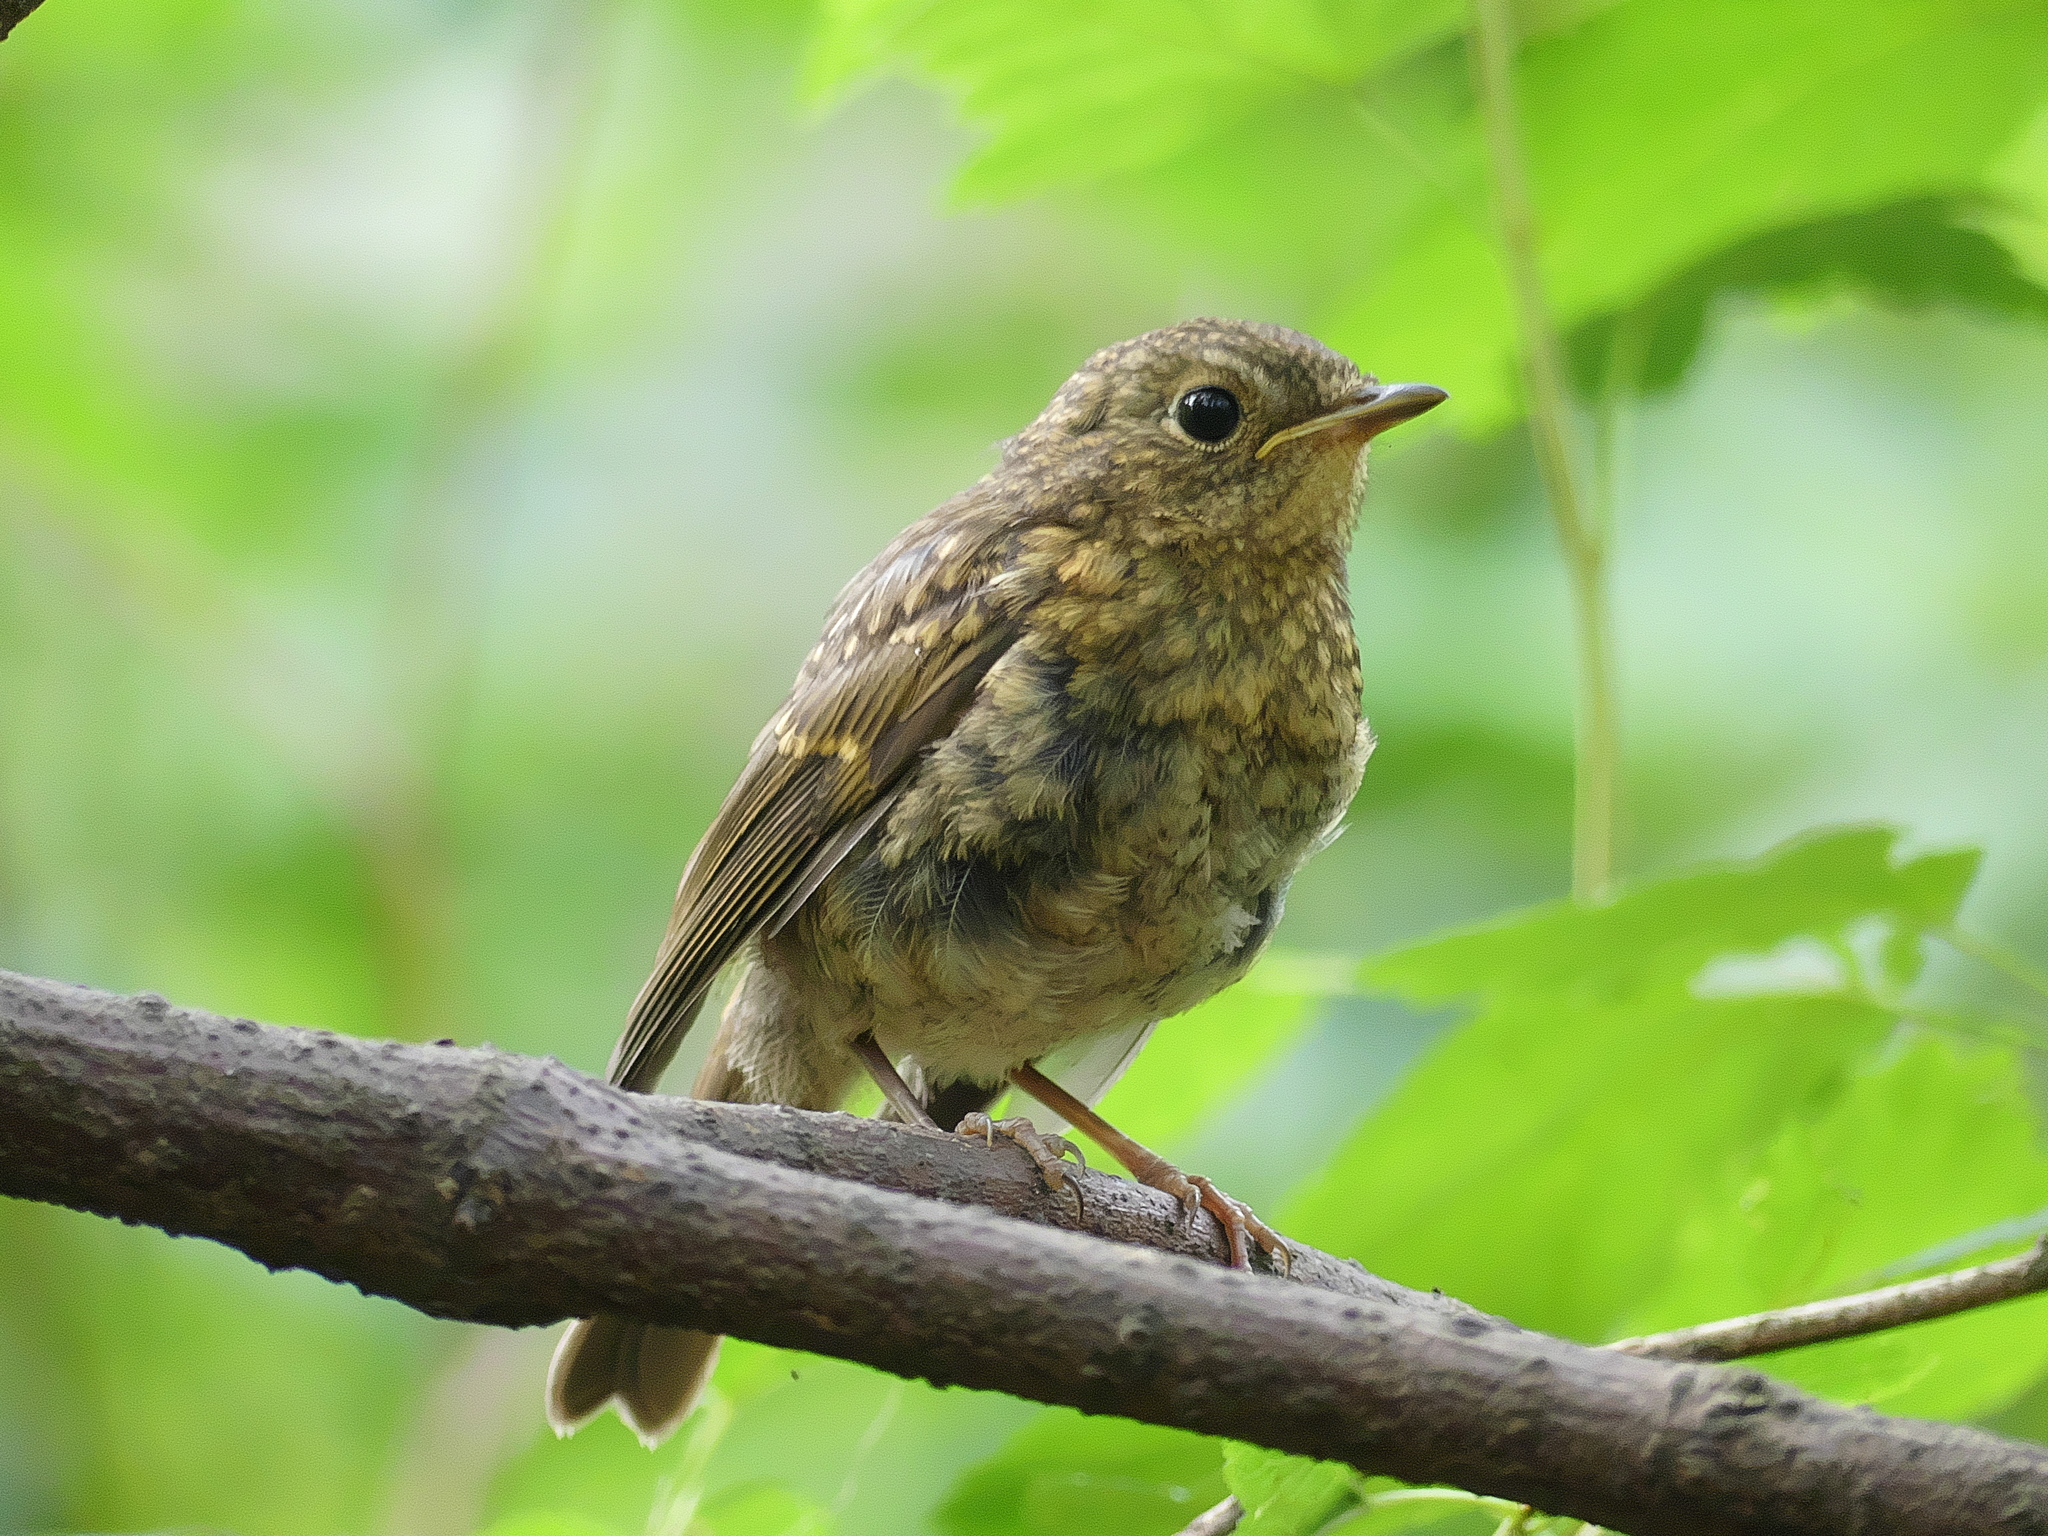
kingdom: Animalia
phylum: Chordata
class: Aves
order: Passeriformes
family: Muscicapidae
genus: Erithacus
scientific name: Erithacus rubecula
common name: European robin
